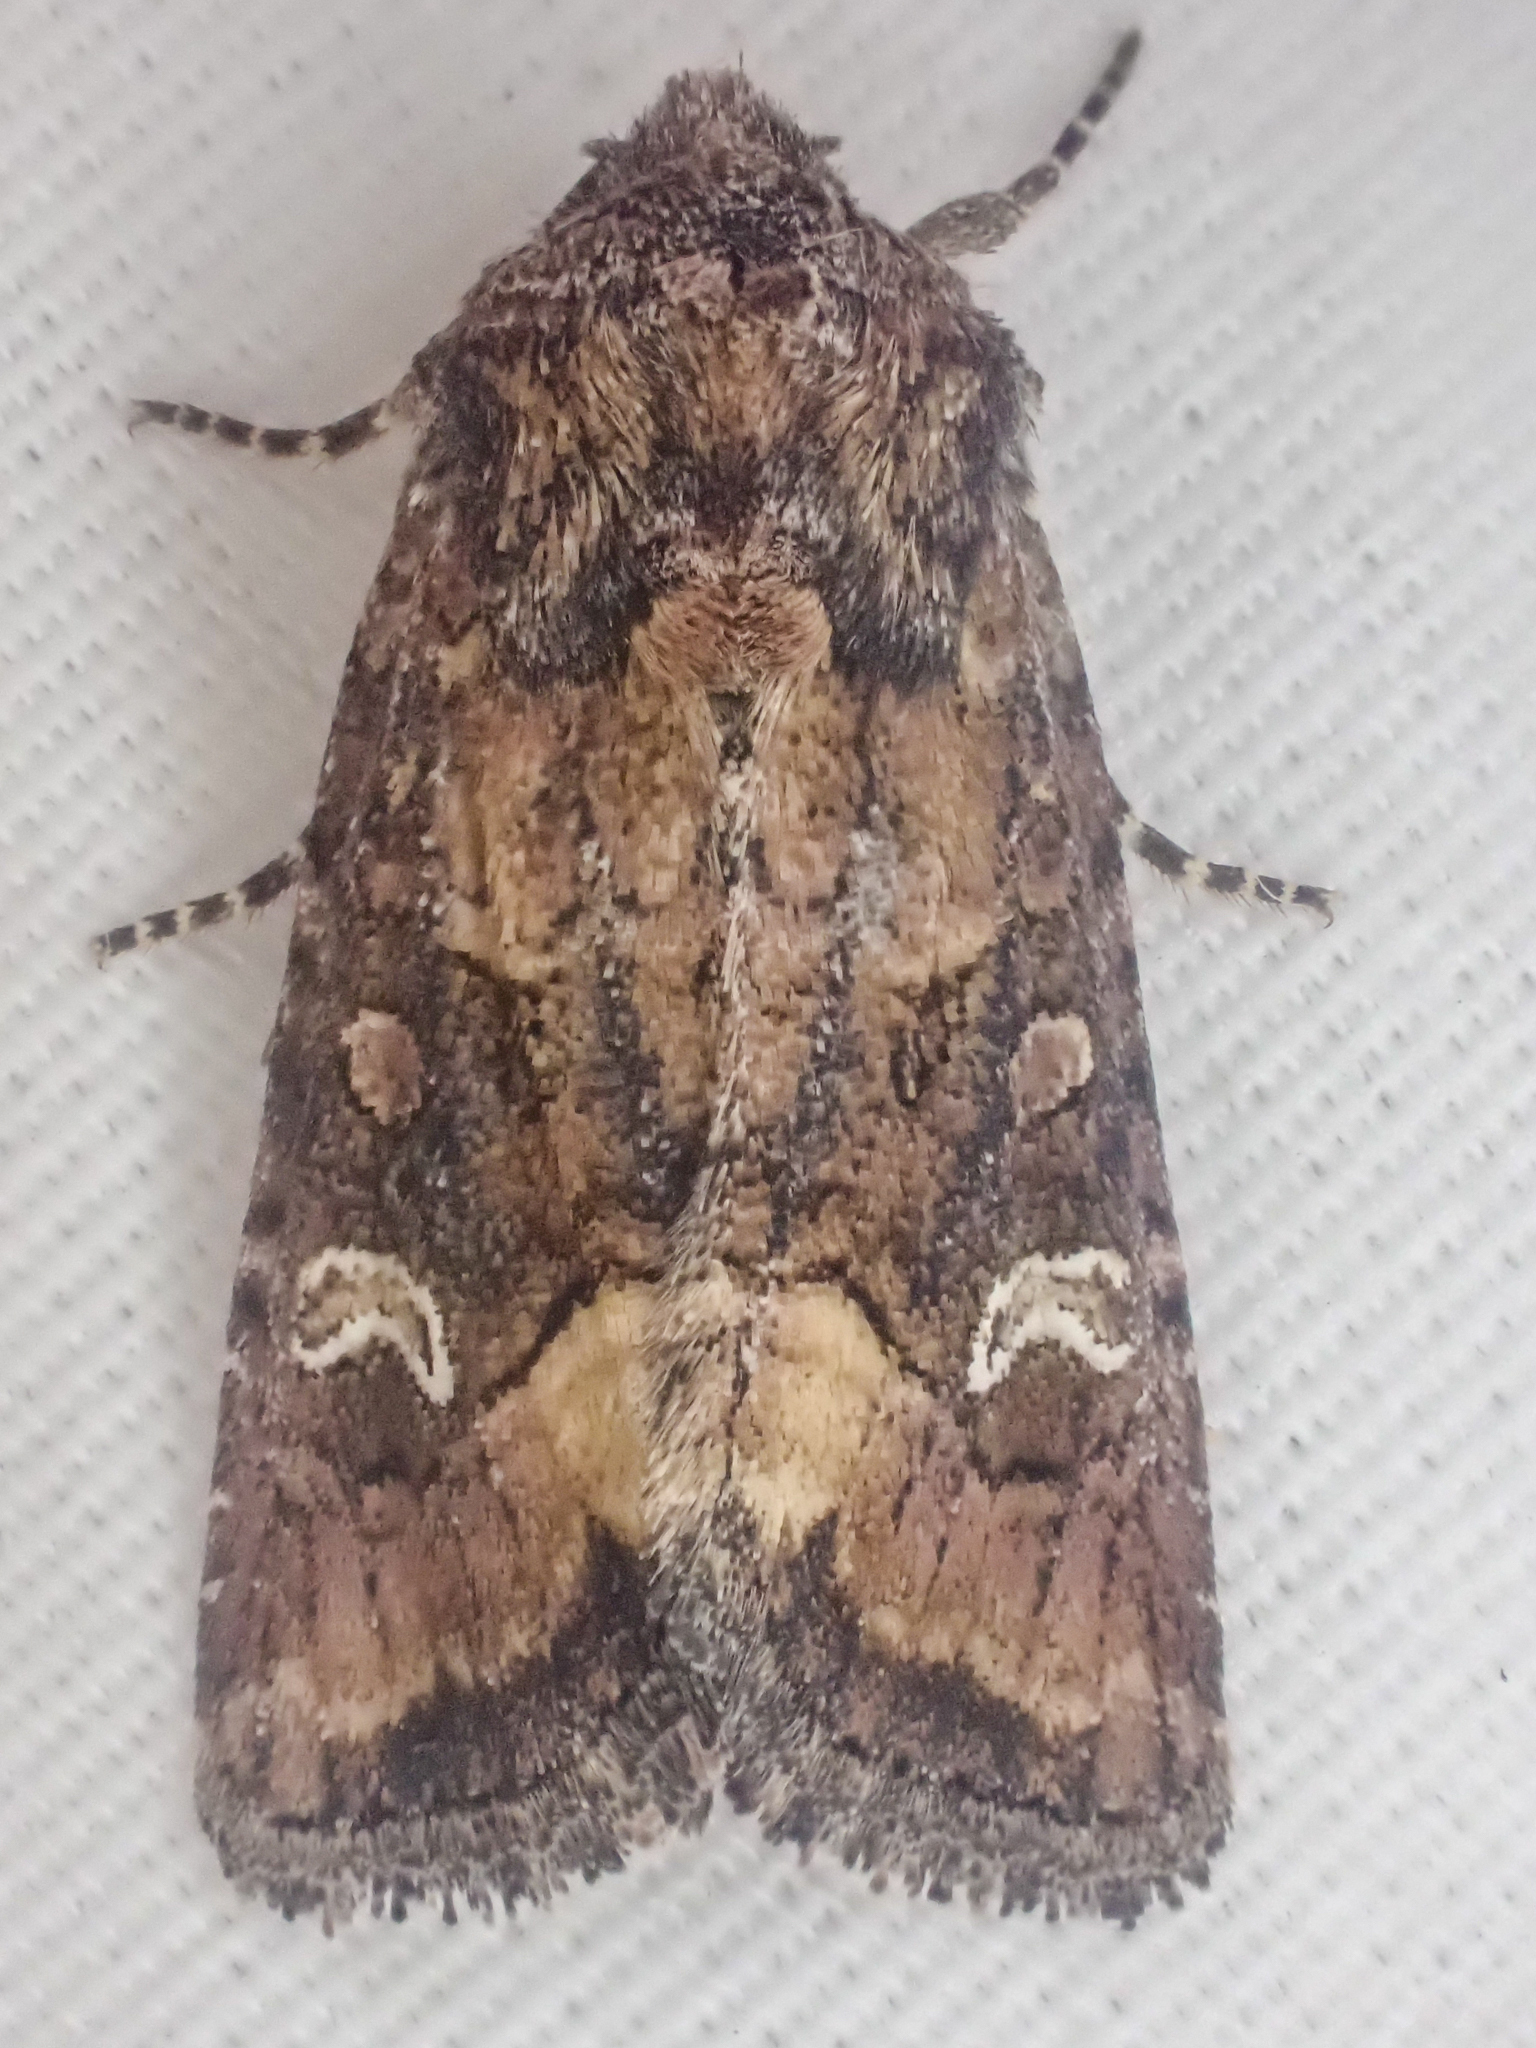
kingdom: Animalia
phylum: Arthropoda
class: Insecta
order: Lepidoptera
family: Noctuidae
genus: Lacinipolia
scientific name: Lacinipolia circumcincta
